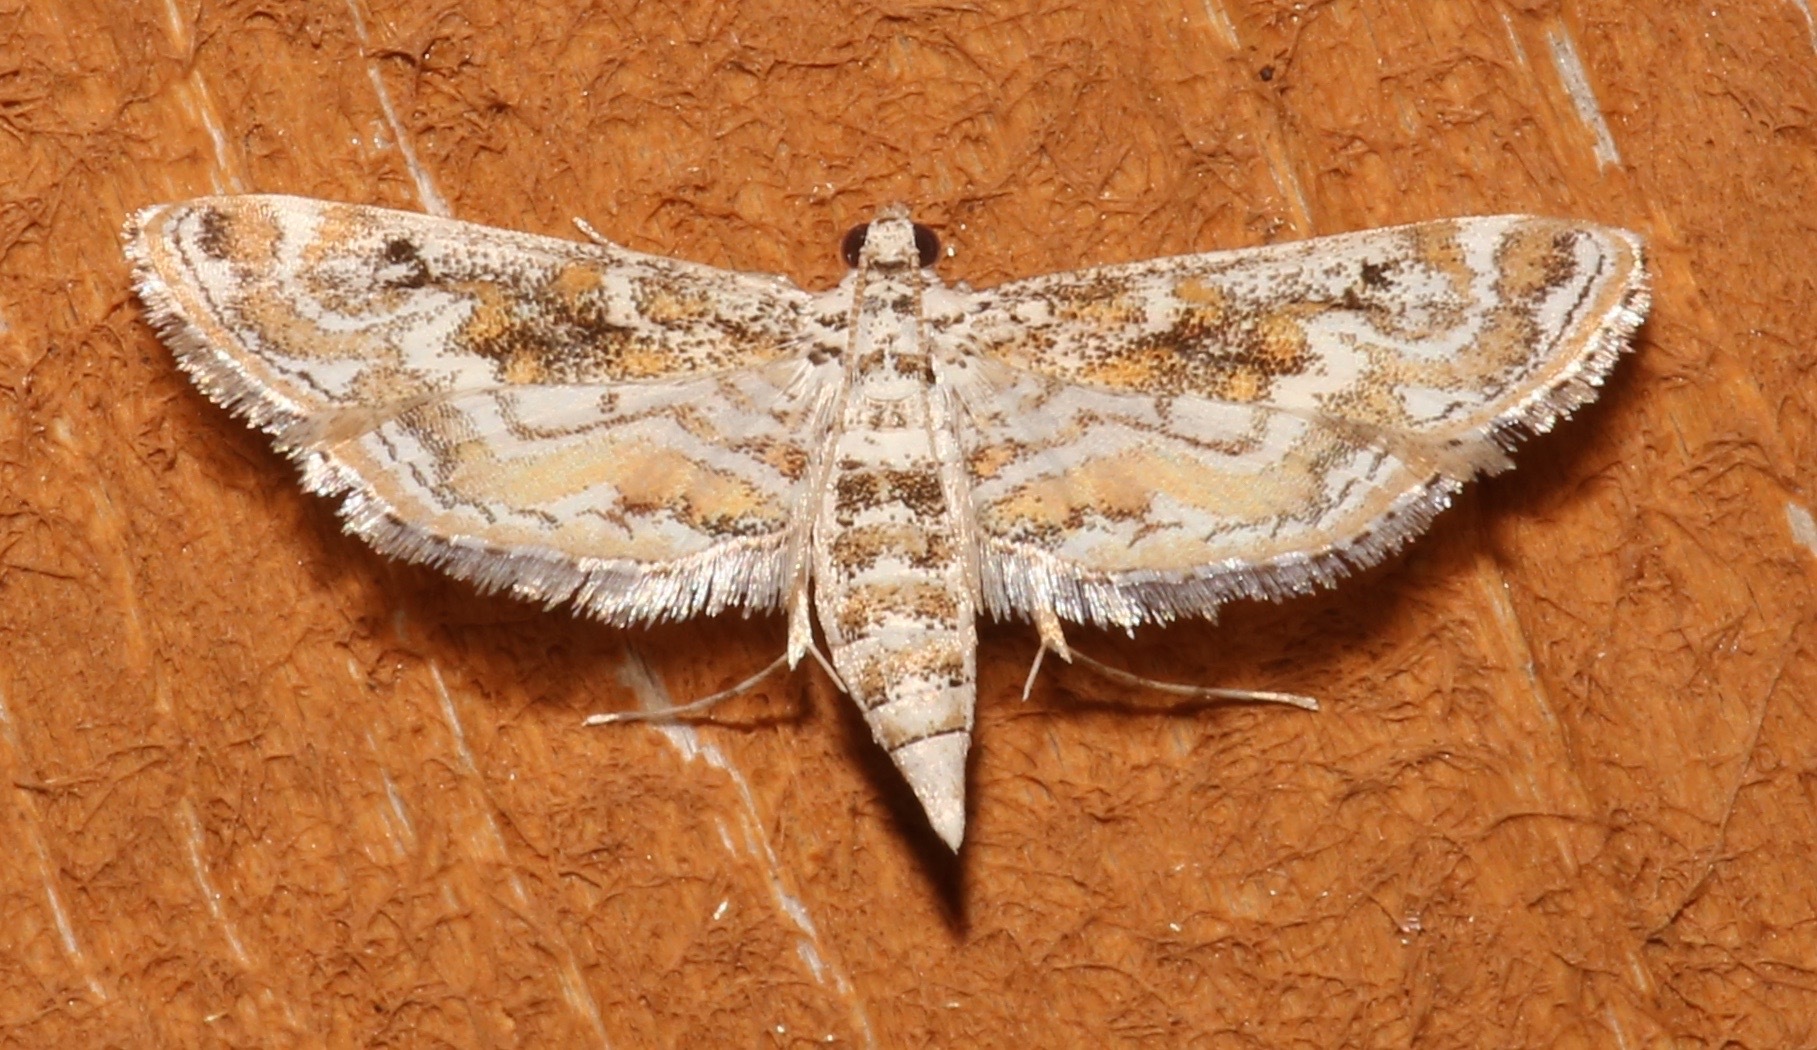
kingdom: Animalia
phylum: Arthropoda
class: Insecta
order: Lepidoptera
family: Crambidae
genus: Parapoynx
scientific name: Parapoynx diminutalis
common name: Hydrilla leafcutter
